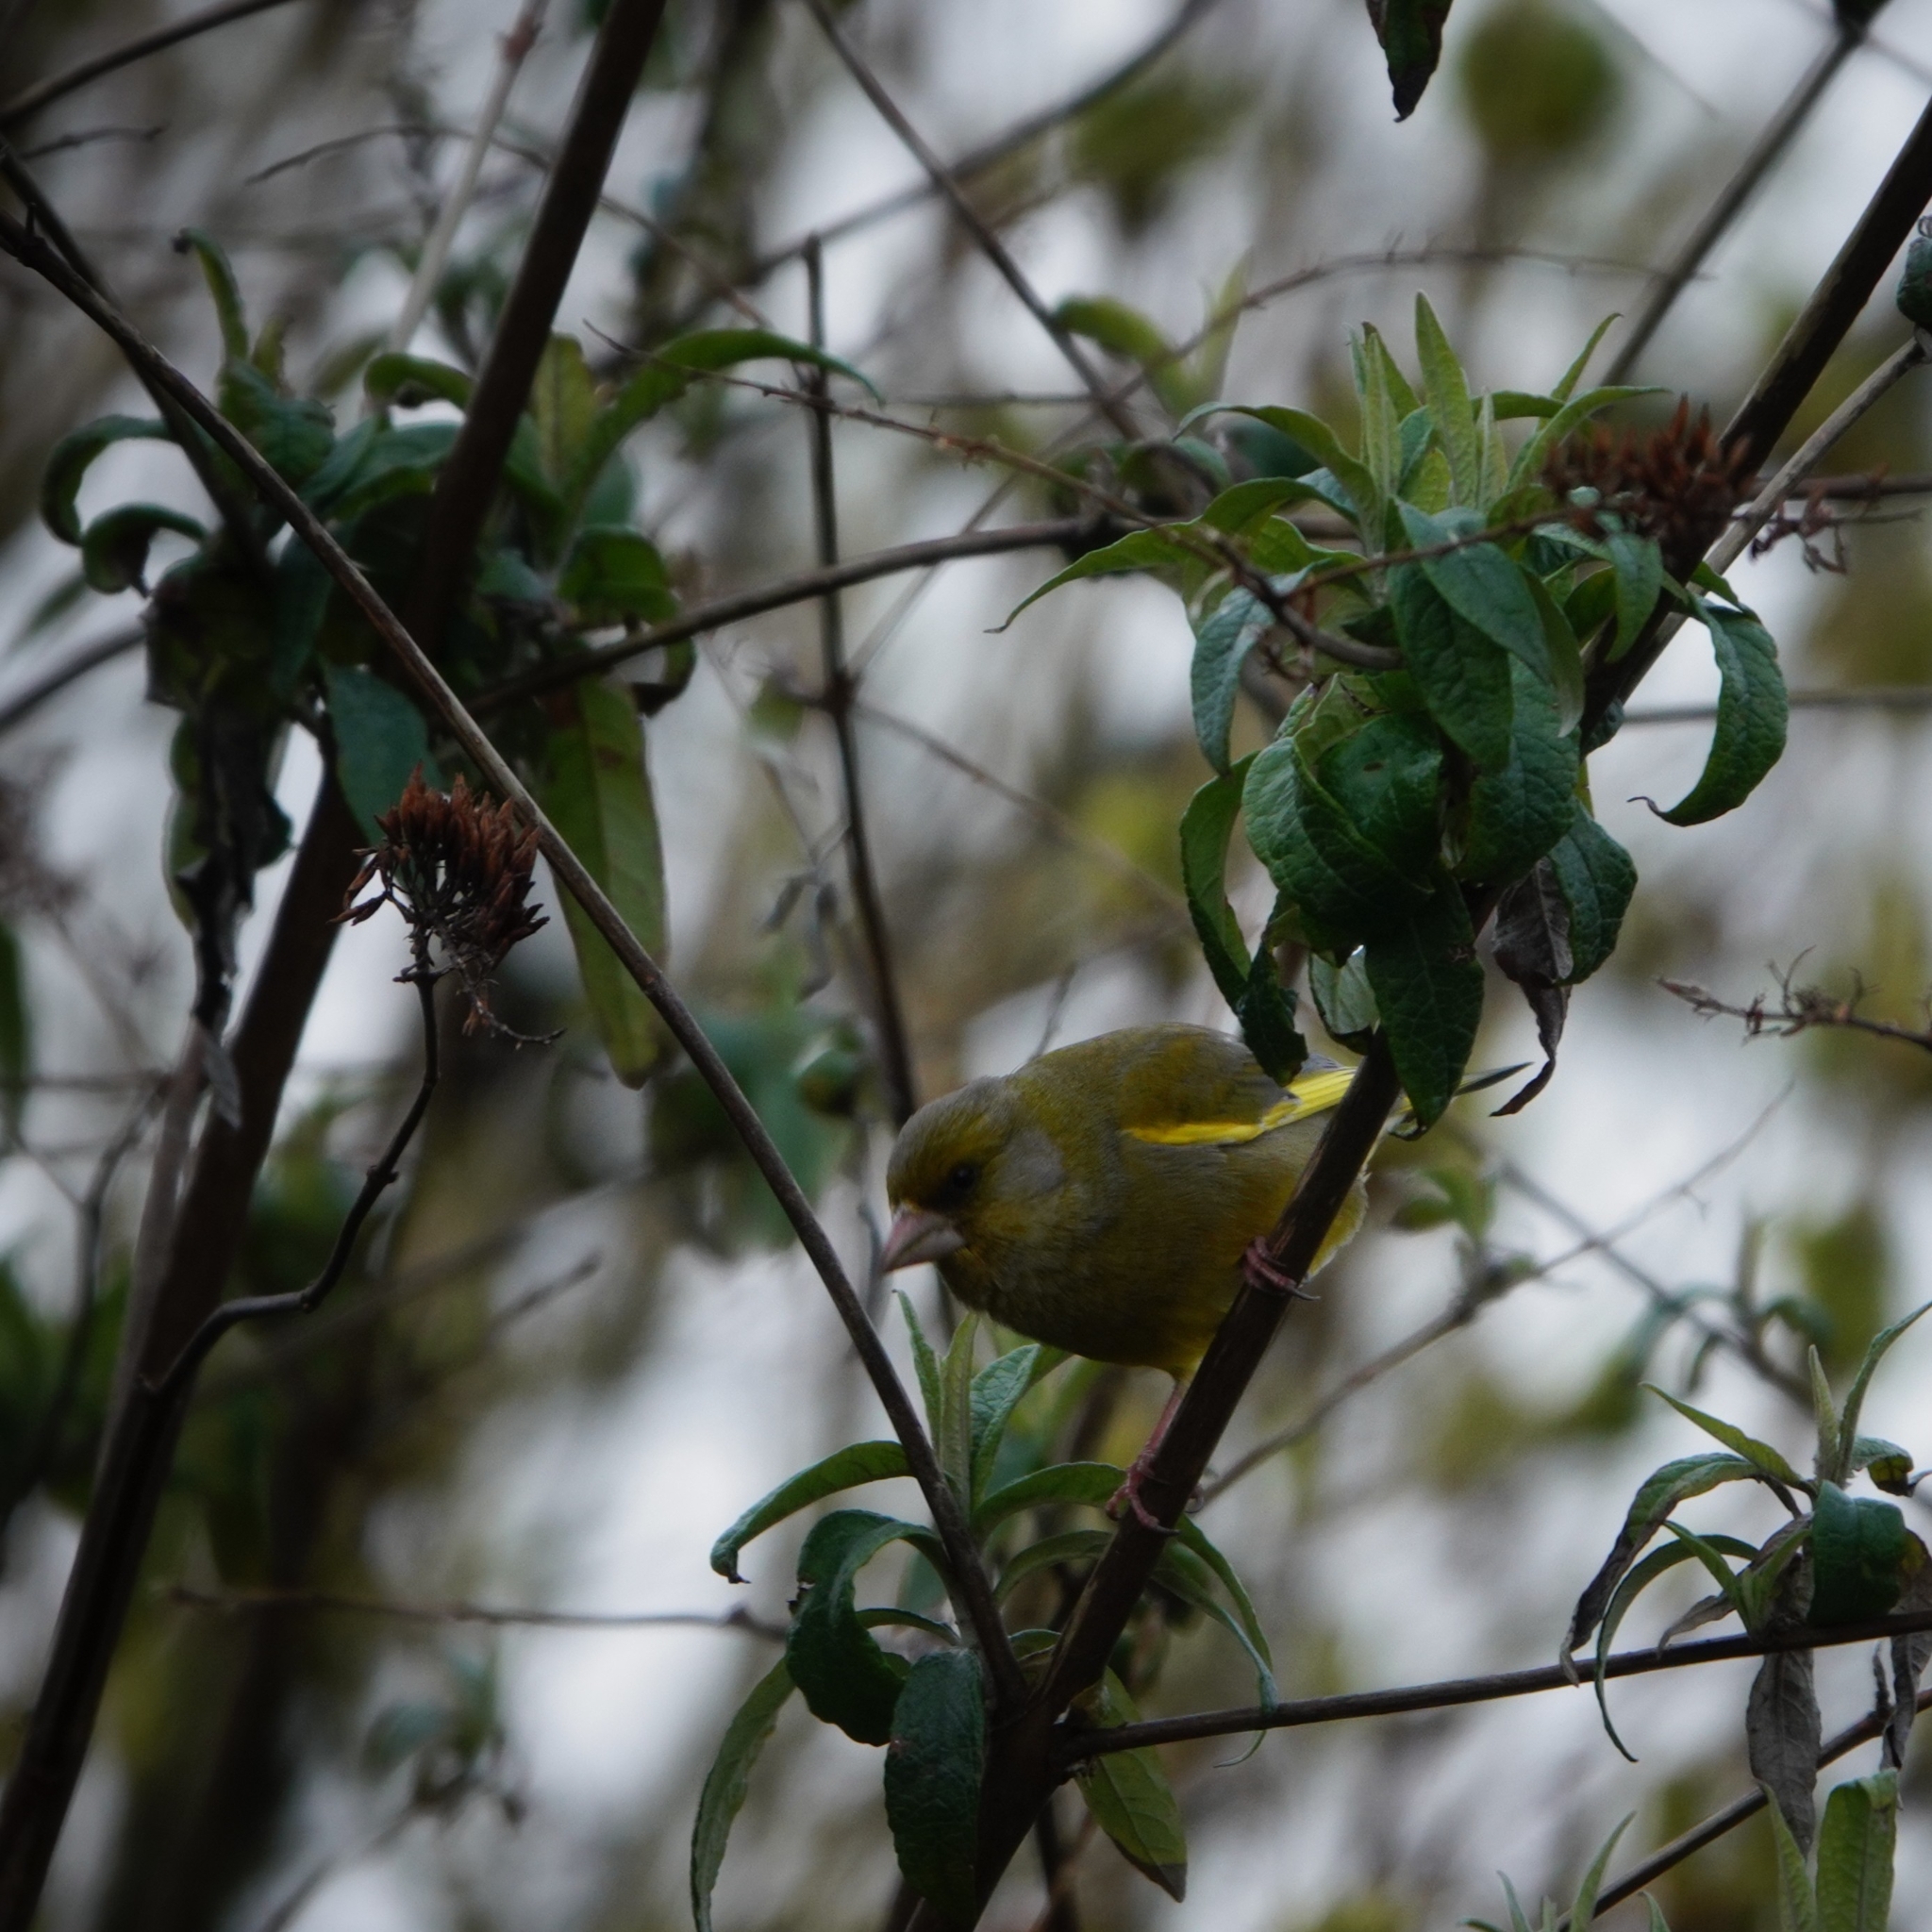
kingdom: Plantae
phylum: Tracheophyta
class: Liliopsida
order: Poales
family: Poaceae
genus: Chloris
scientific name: Chloris chloris
